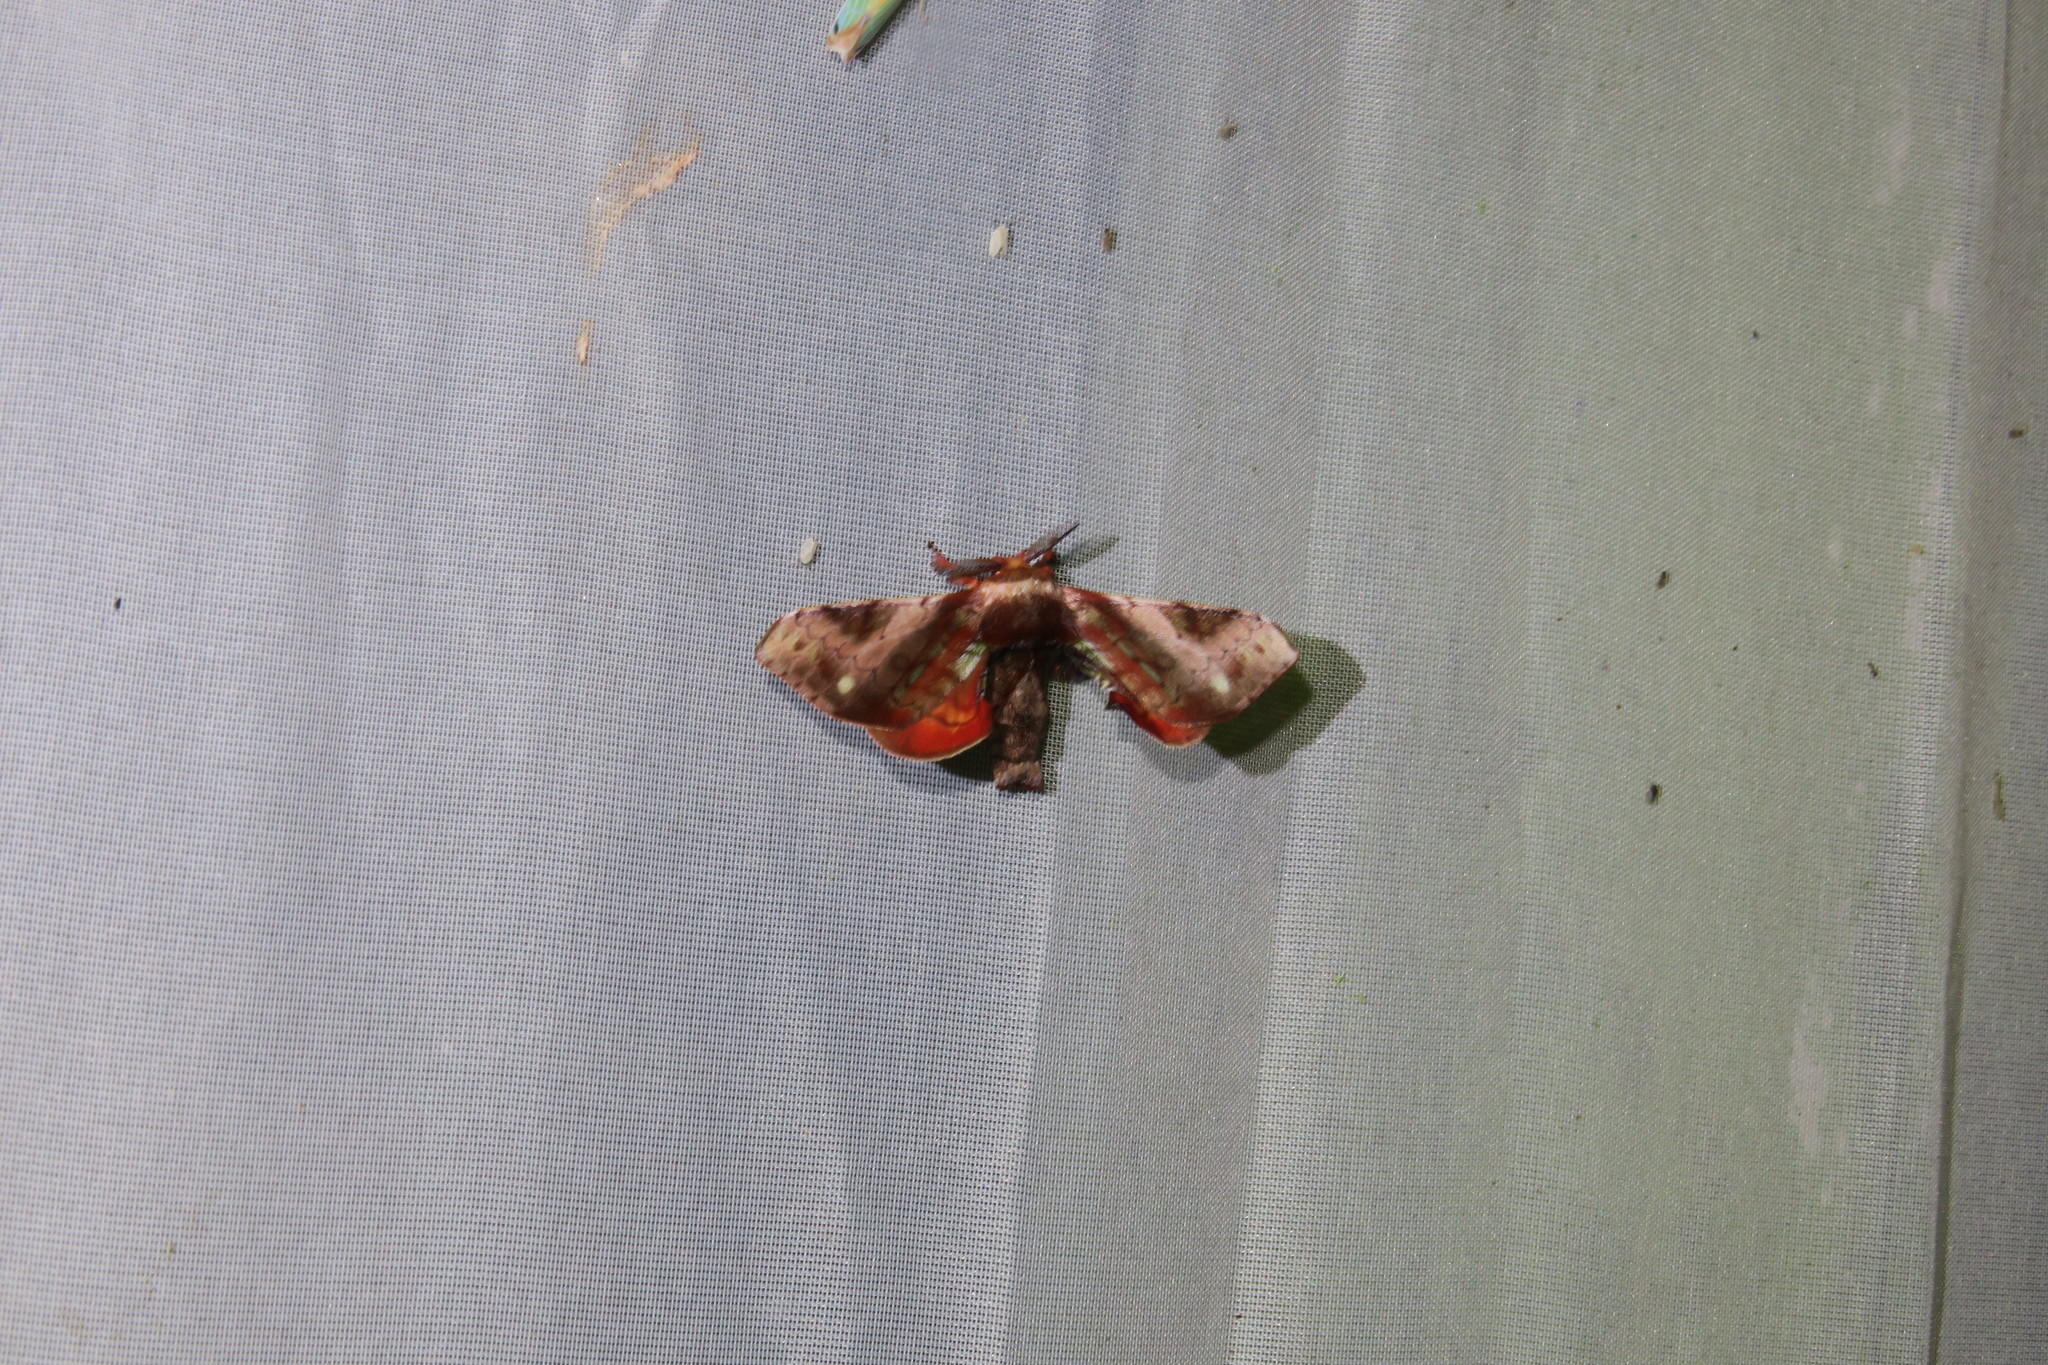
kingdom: Animalia
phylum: Arthropoda
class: Insecta
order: Lepidoptera
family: Bombycidae
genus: Epia
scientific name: Epia vulnerata
